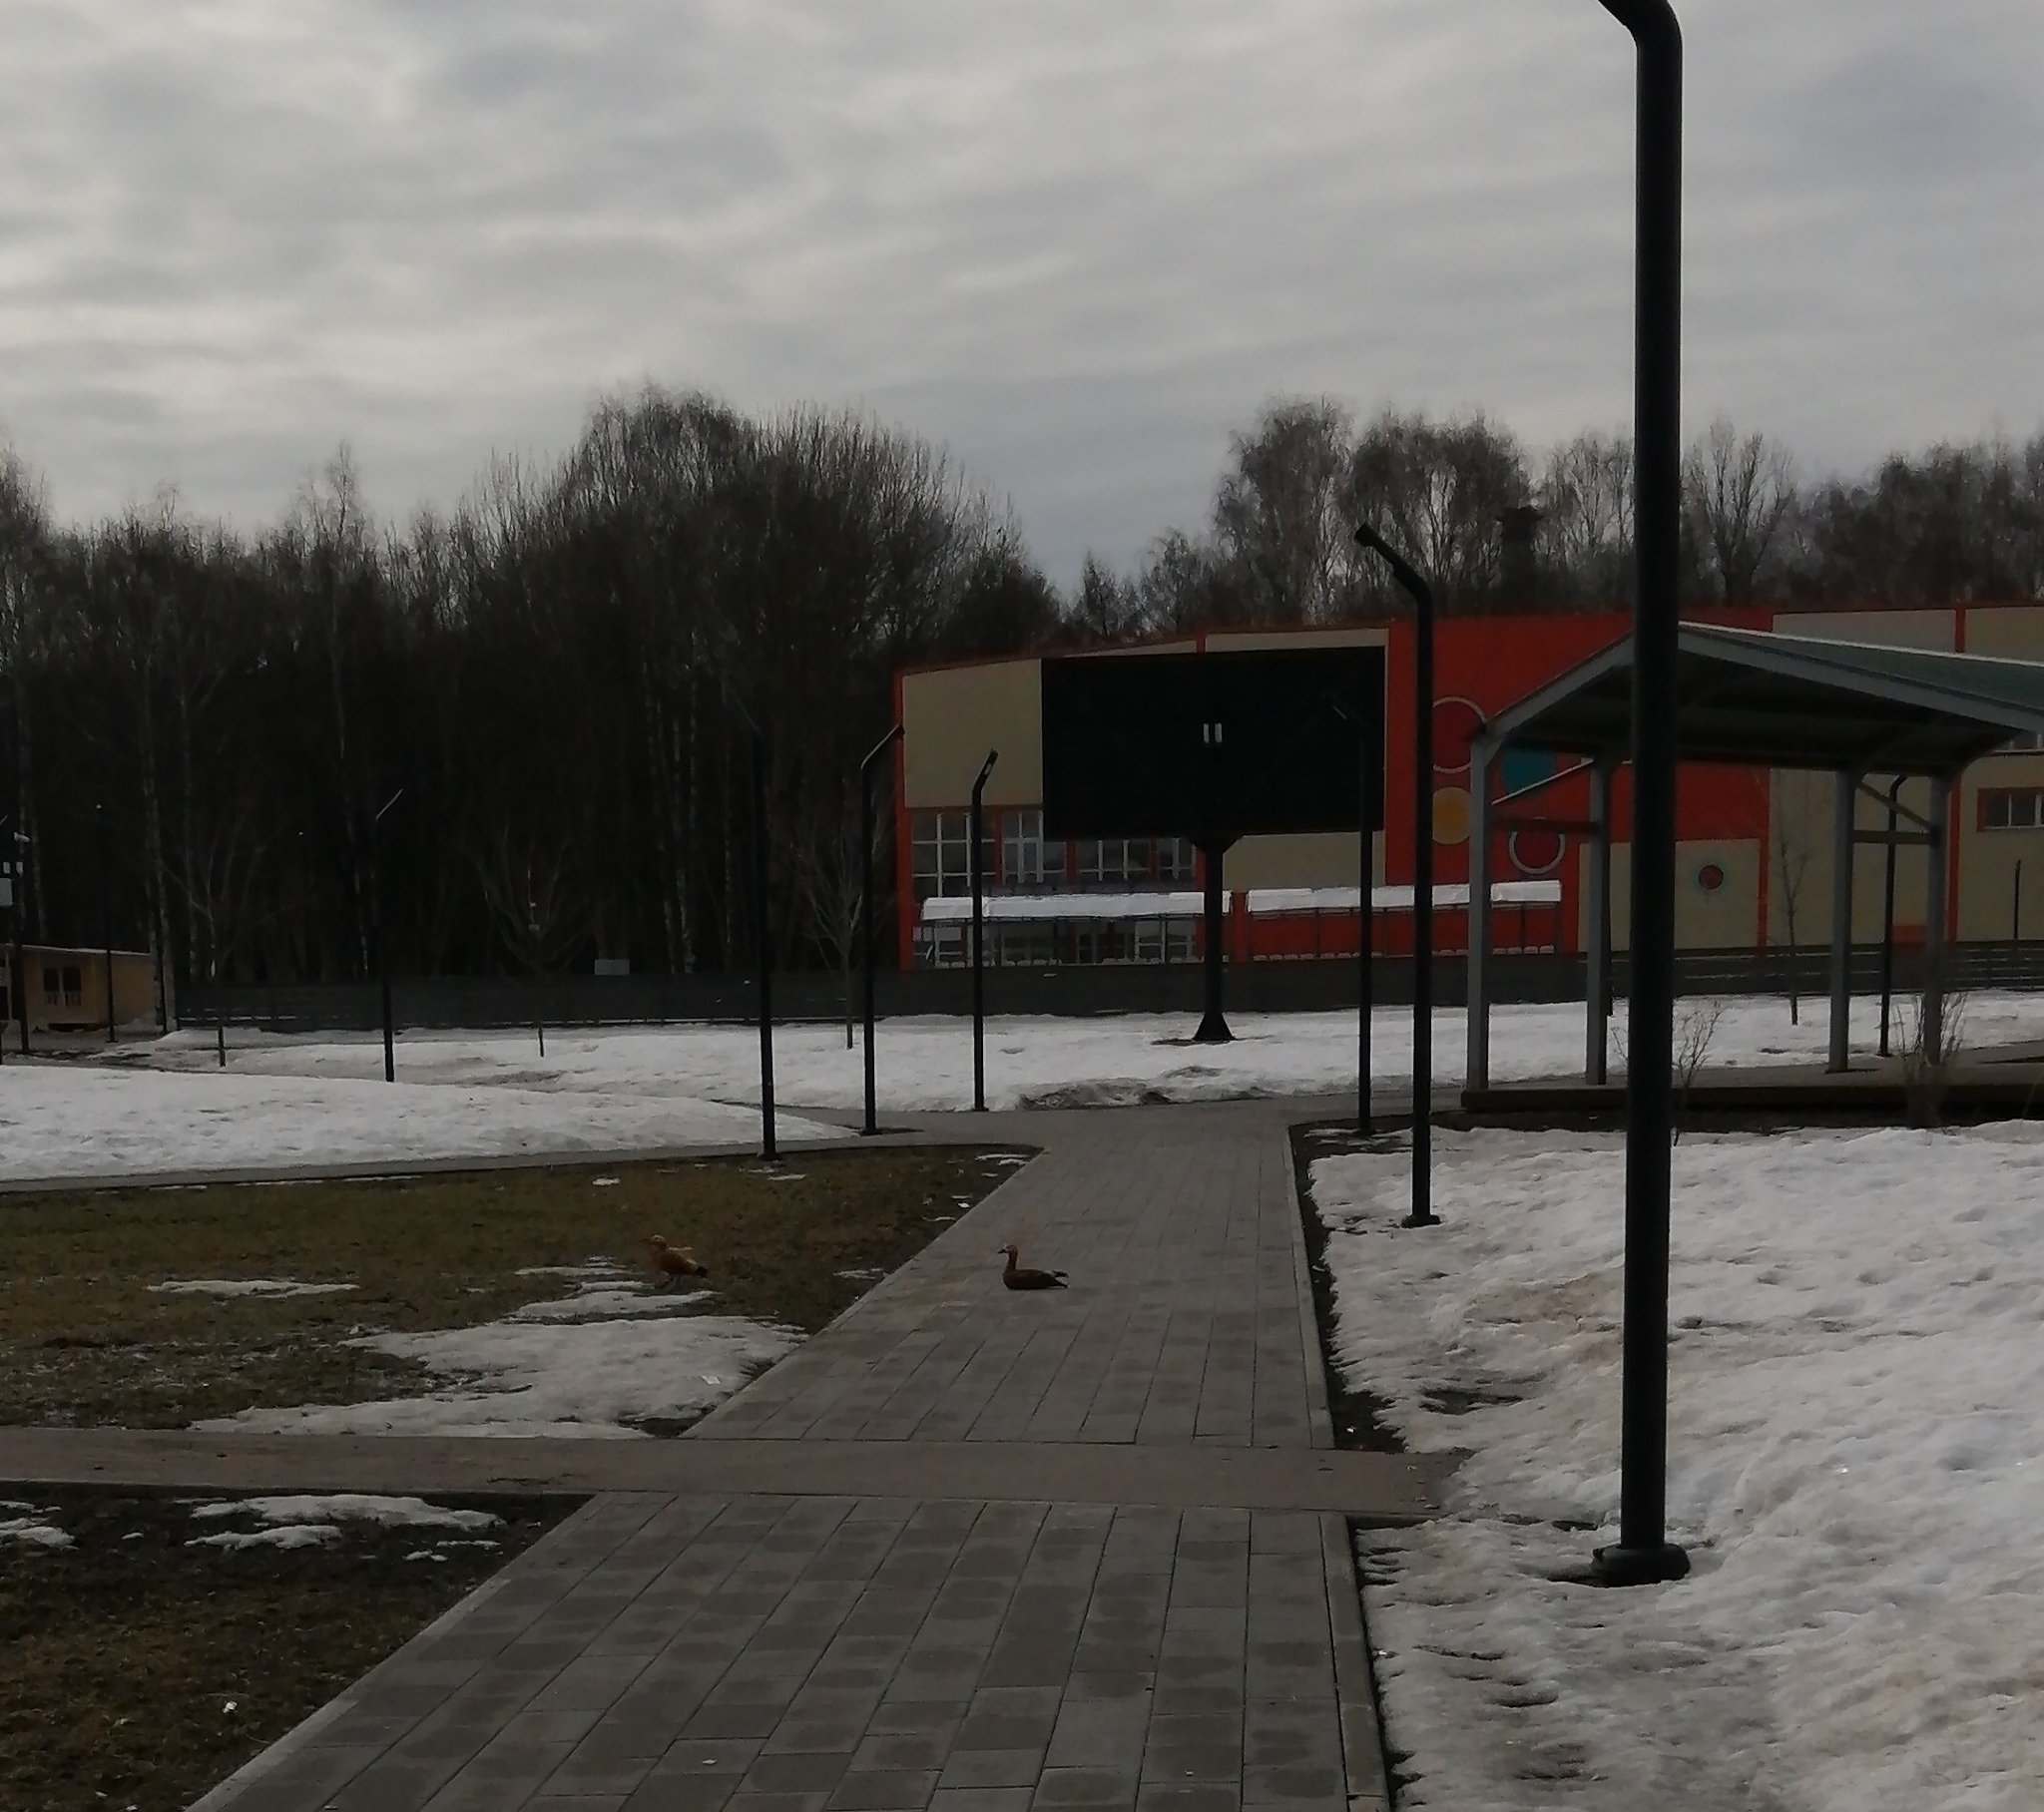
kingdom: Animalia
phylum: Chordata
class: Aves
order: Anseriformes
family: Anatidae
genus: Tadorna
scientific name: Tadorna ferruginea
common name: Ruddy shelduck
